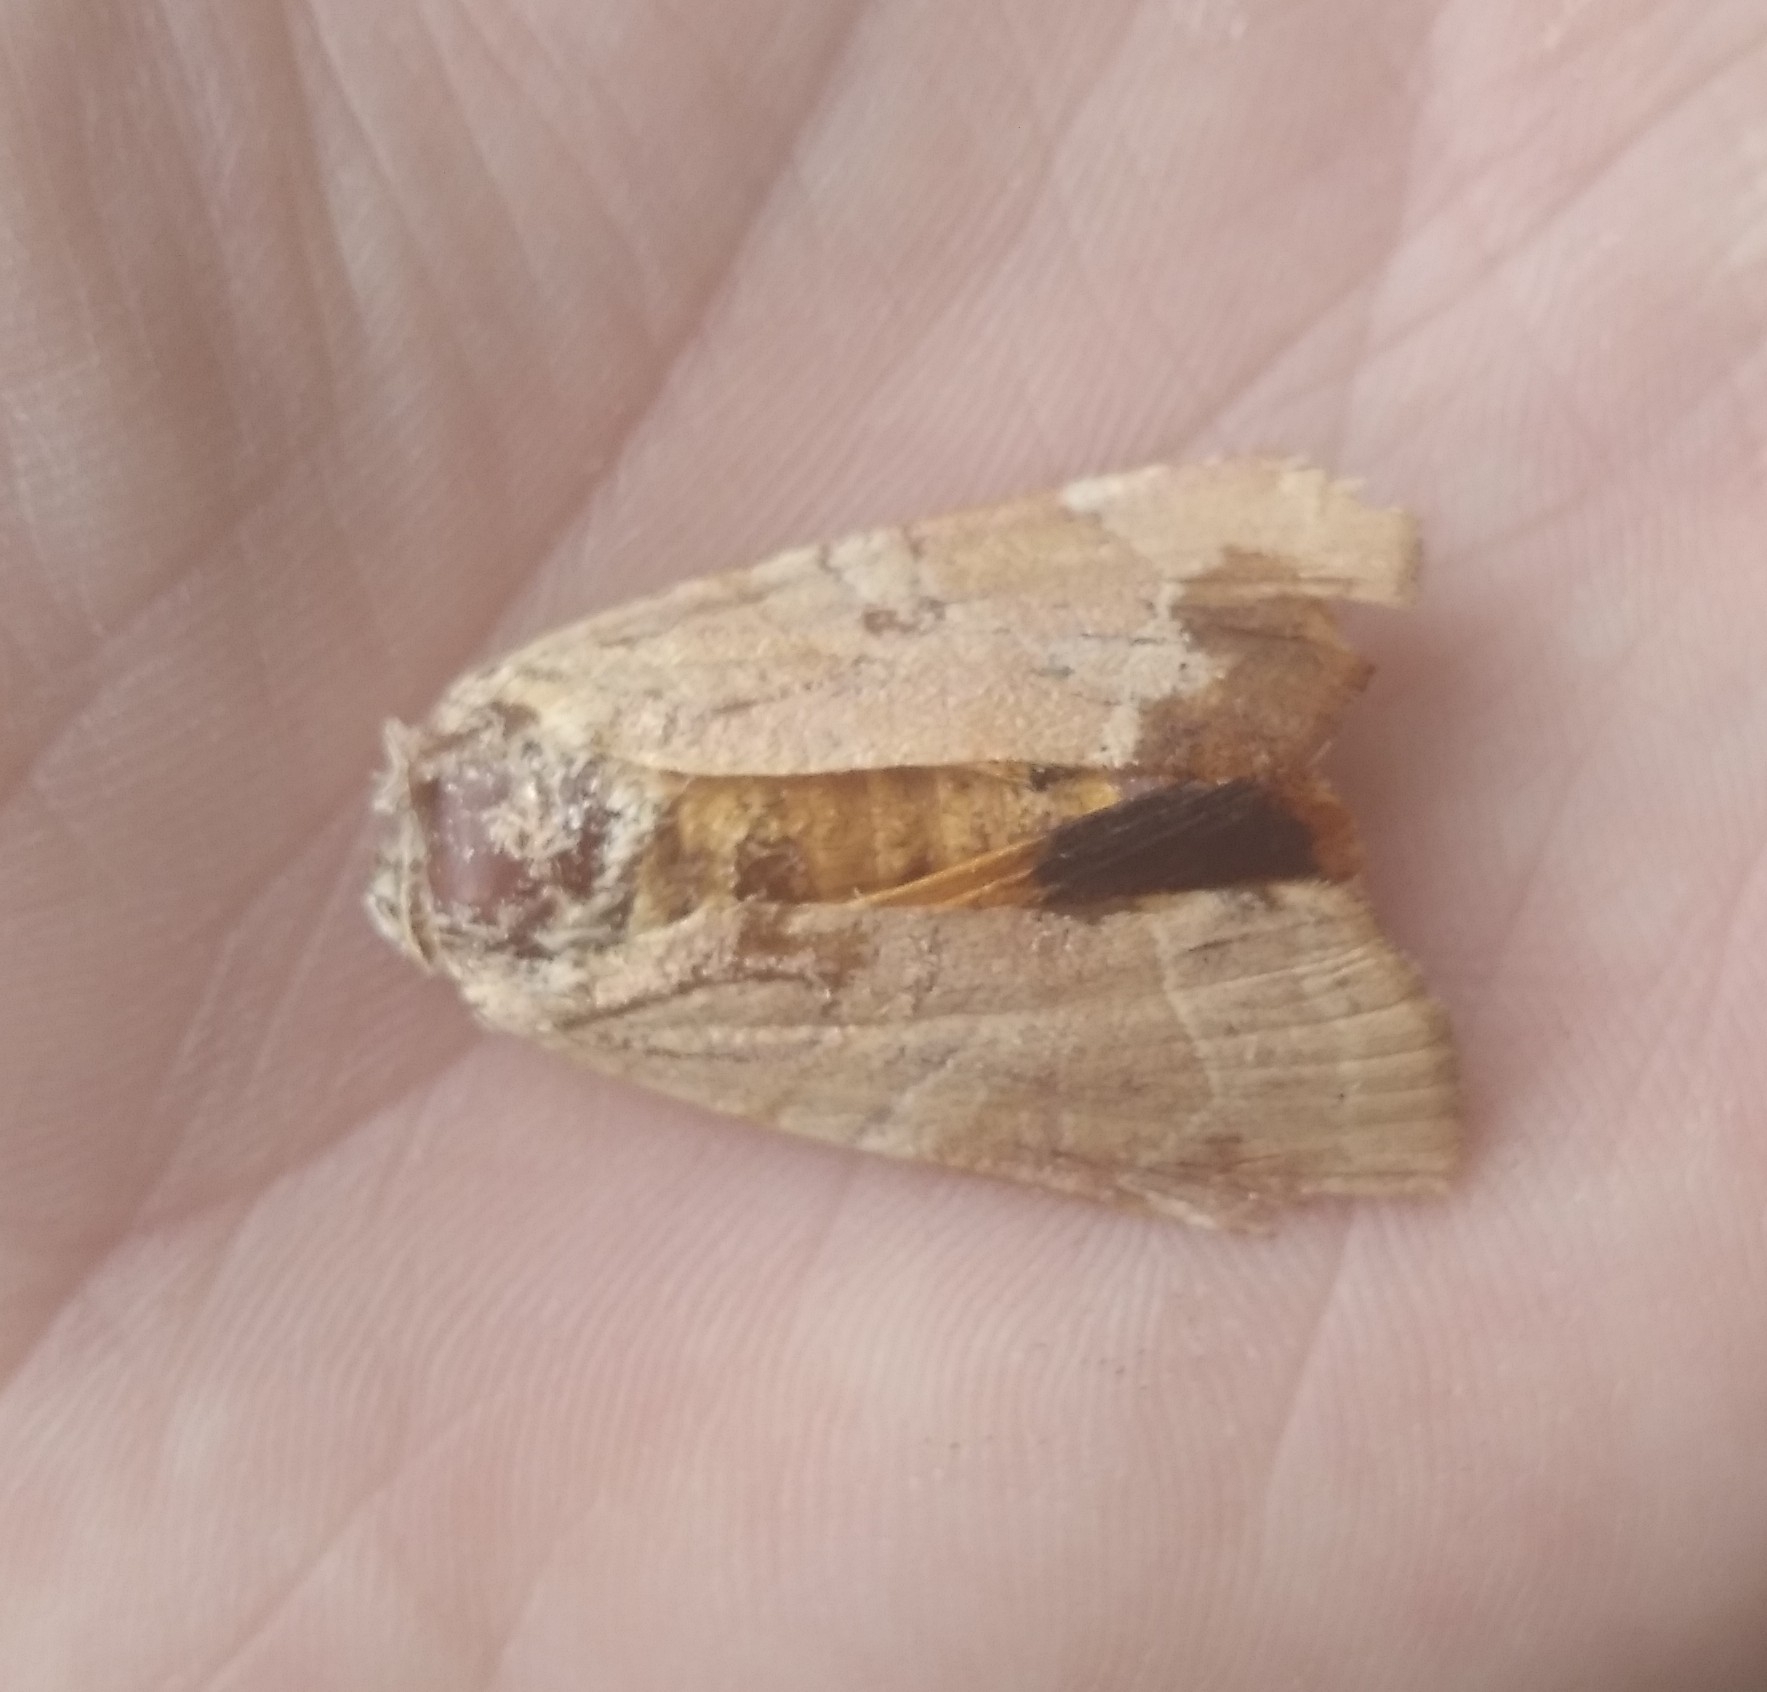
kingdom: Animalia
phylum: Arthropoda
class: Insecta
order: Lepidoptera
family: Noctuidae
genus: Noctua
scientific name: Noctua fimbriata
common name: Broad-bordered yellow underwing
